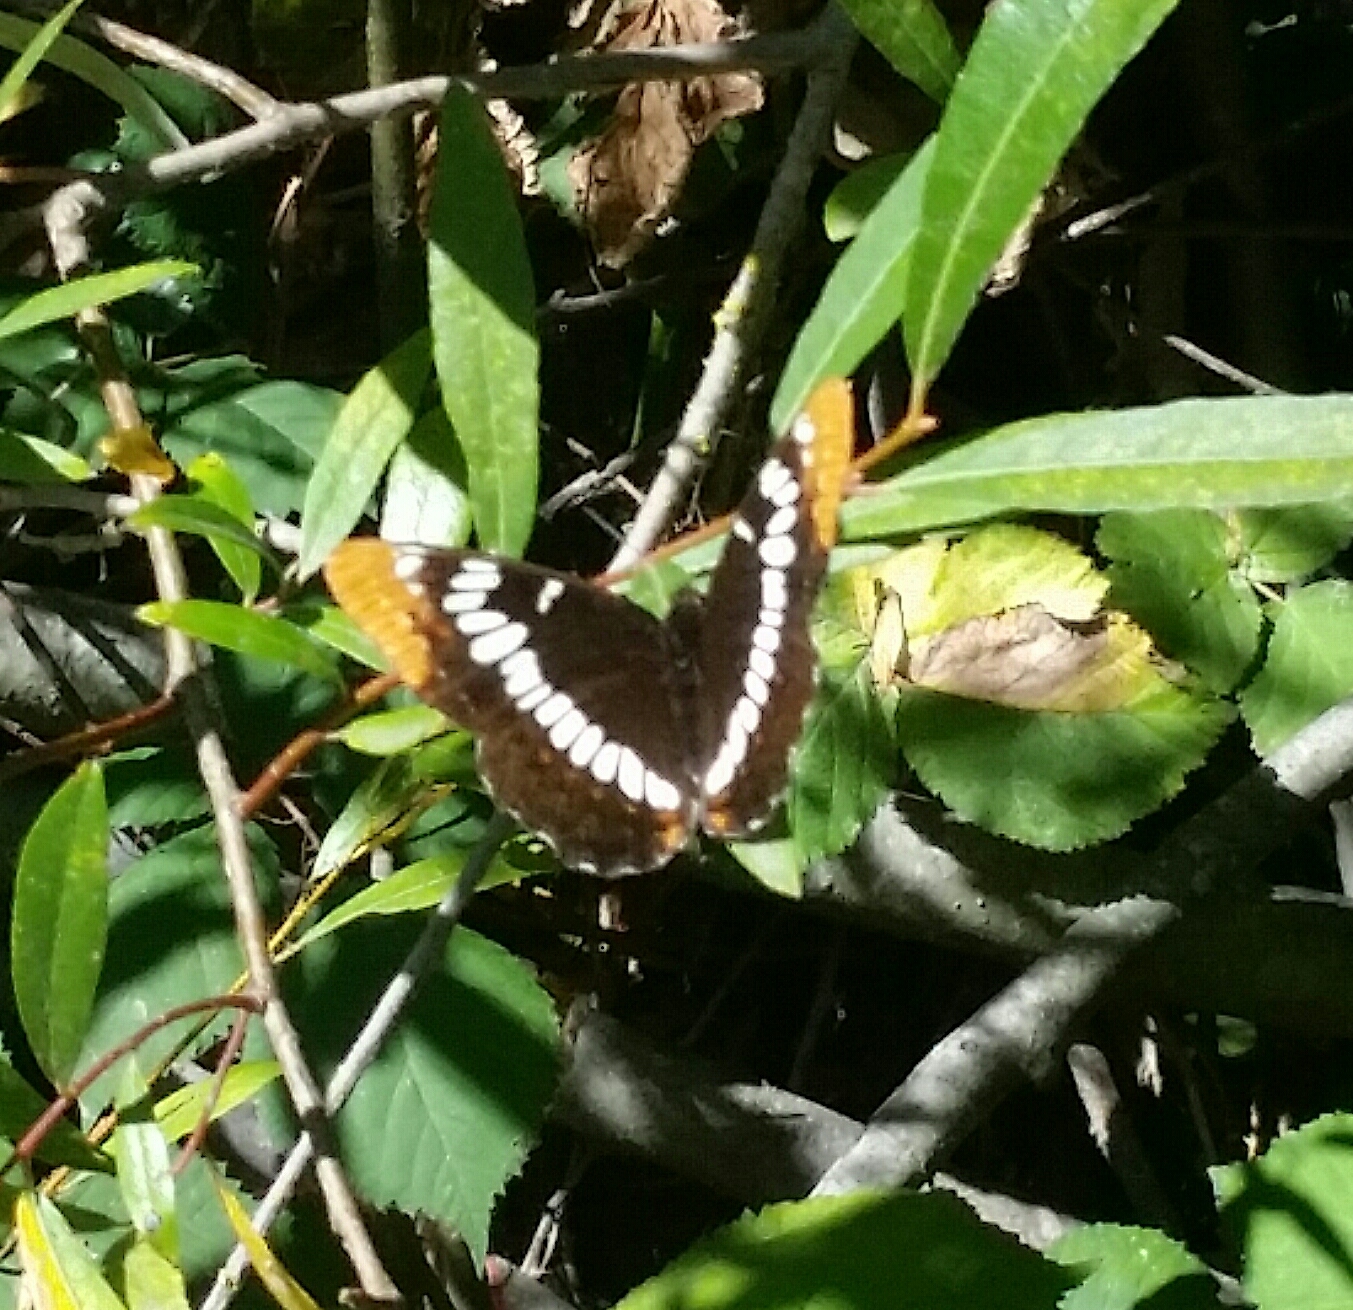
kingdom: Animalia
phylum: Arthropoda
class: Insecta
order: Lepidoptera
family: Nymphalidae
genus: Limenitis
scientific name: Limenitis lorquini
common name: Lorquin's admiral
